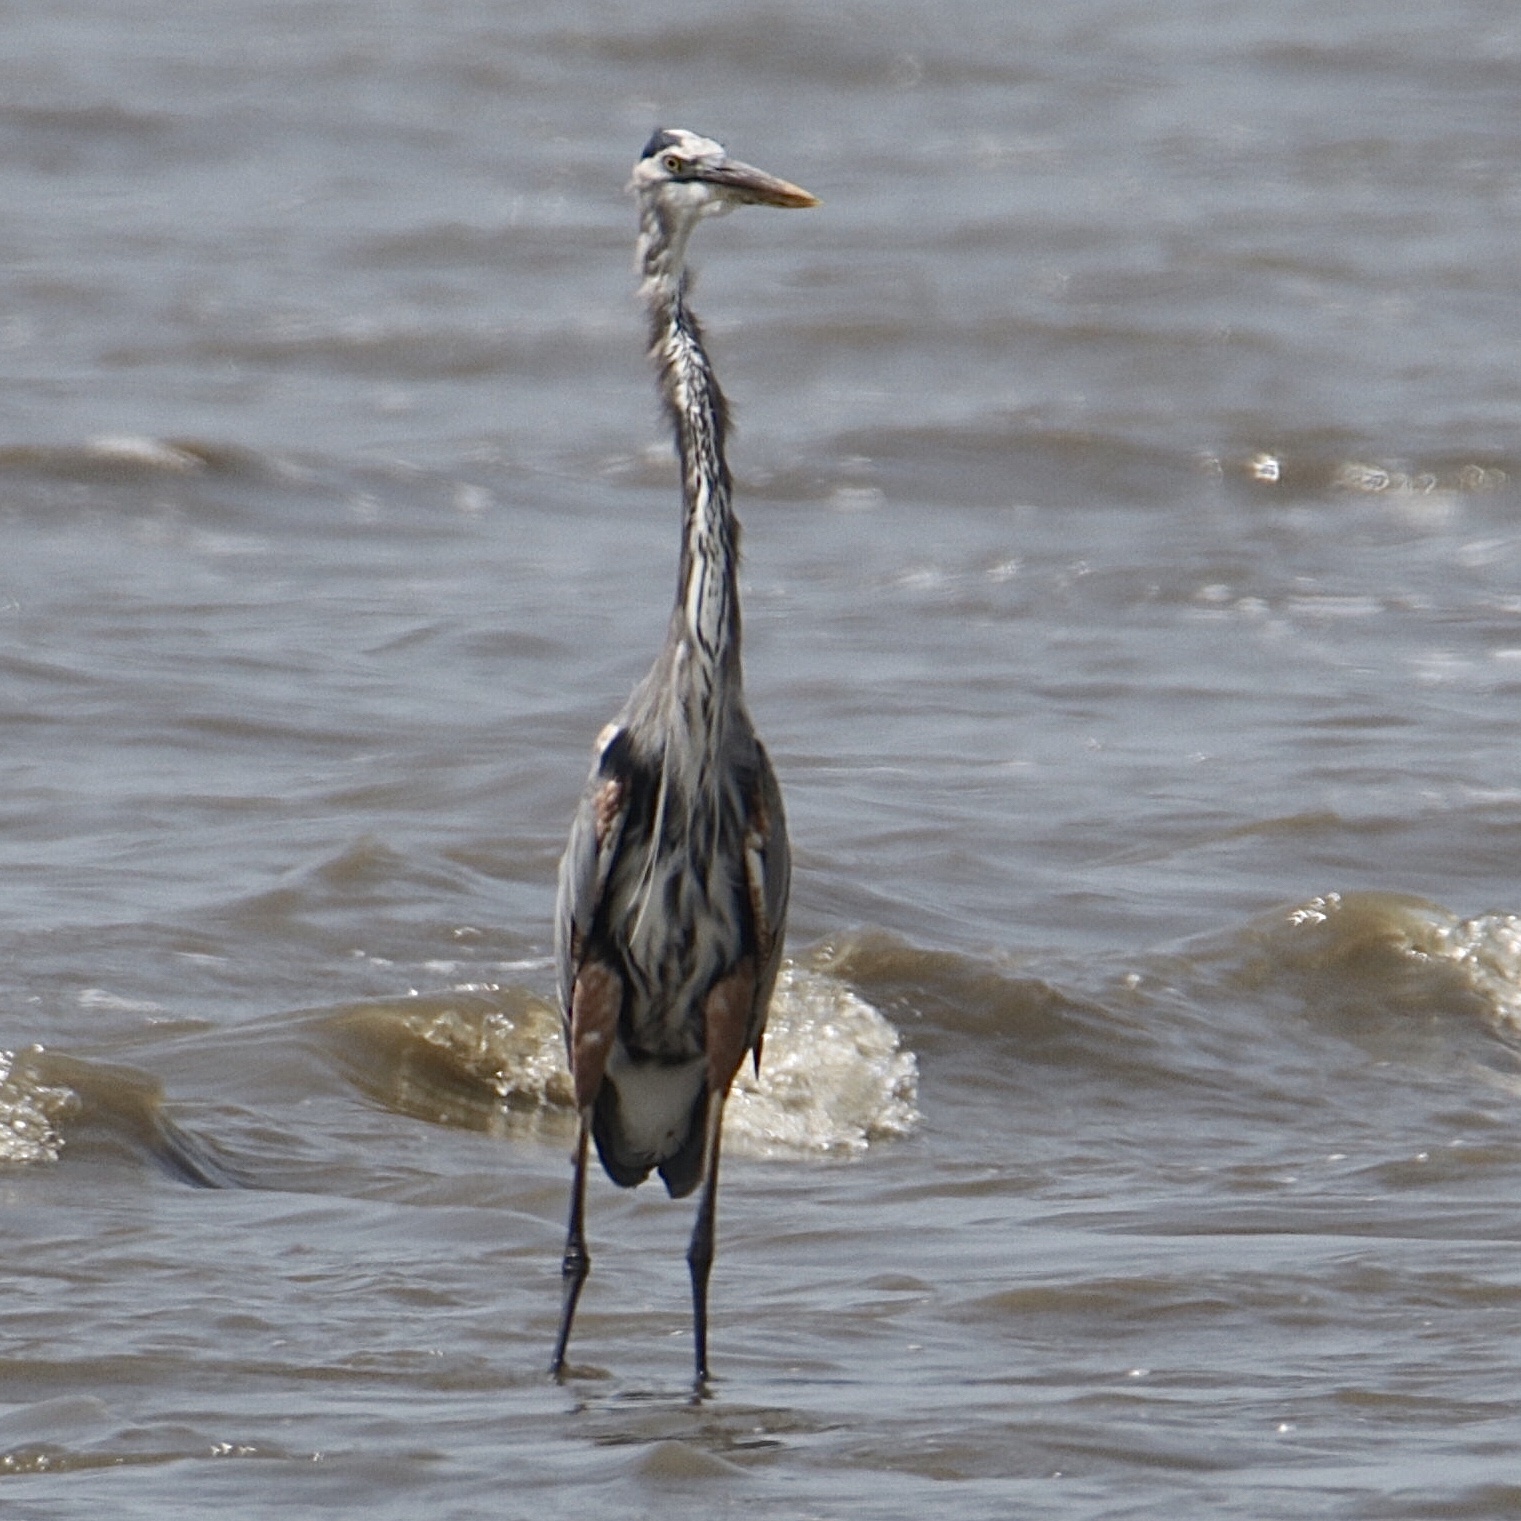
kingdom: Animalia
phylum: Chordata
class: Aves
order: Pelecaniformes
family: Ardeidae
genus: Ardea
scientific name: Ardea herodias
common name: Great blue heron
